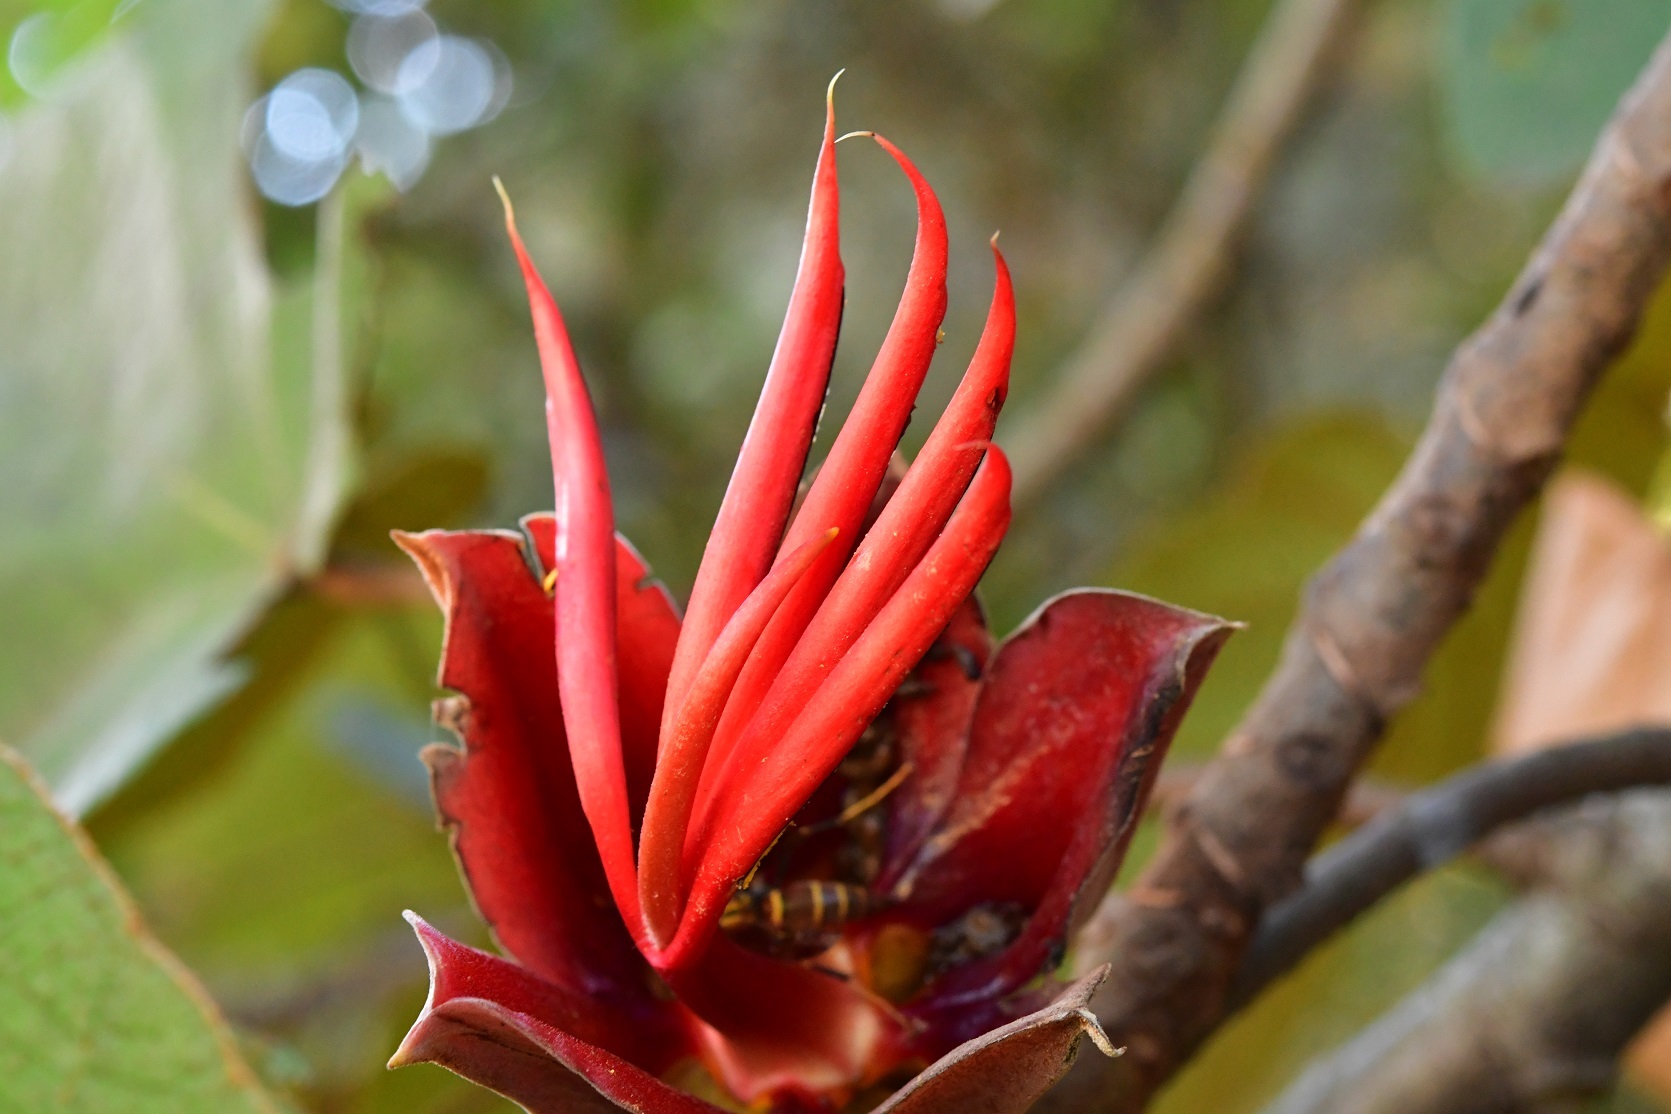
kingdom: Plantae
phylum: Tracheophyta
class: Magnoliopsida
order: Malvales
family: Malvaceae
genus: Chiranthodendron
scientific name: Chiranthodendron pentadactylon
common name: Mexican-hat-plant
